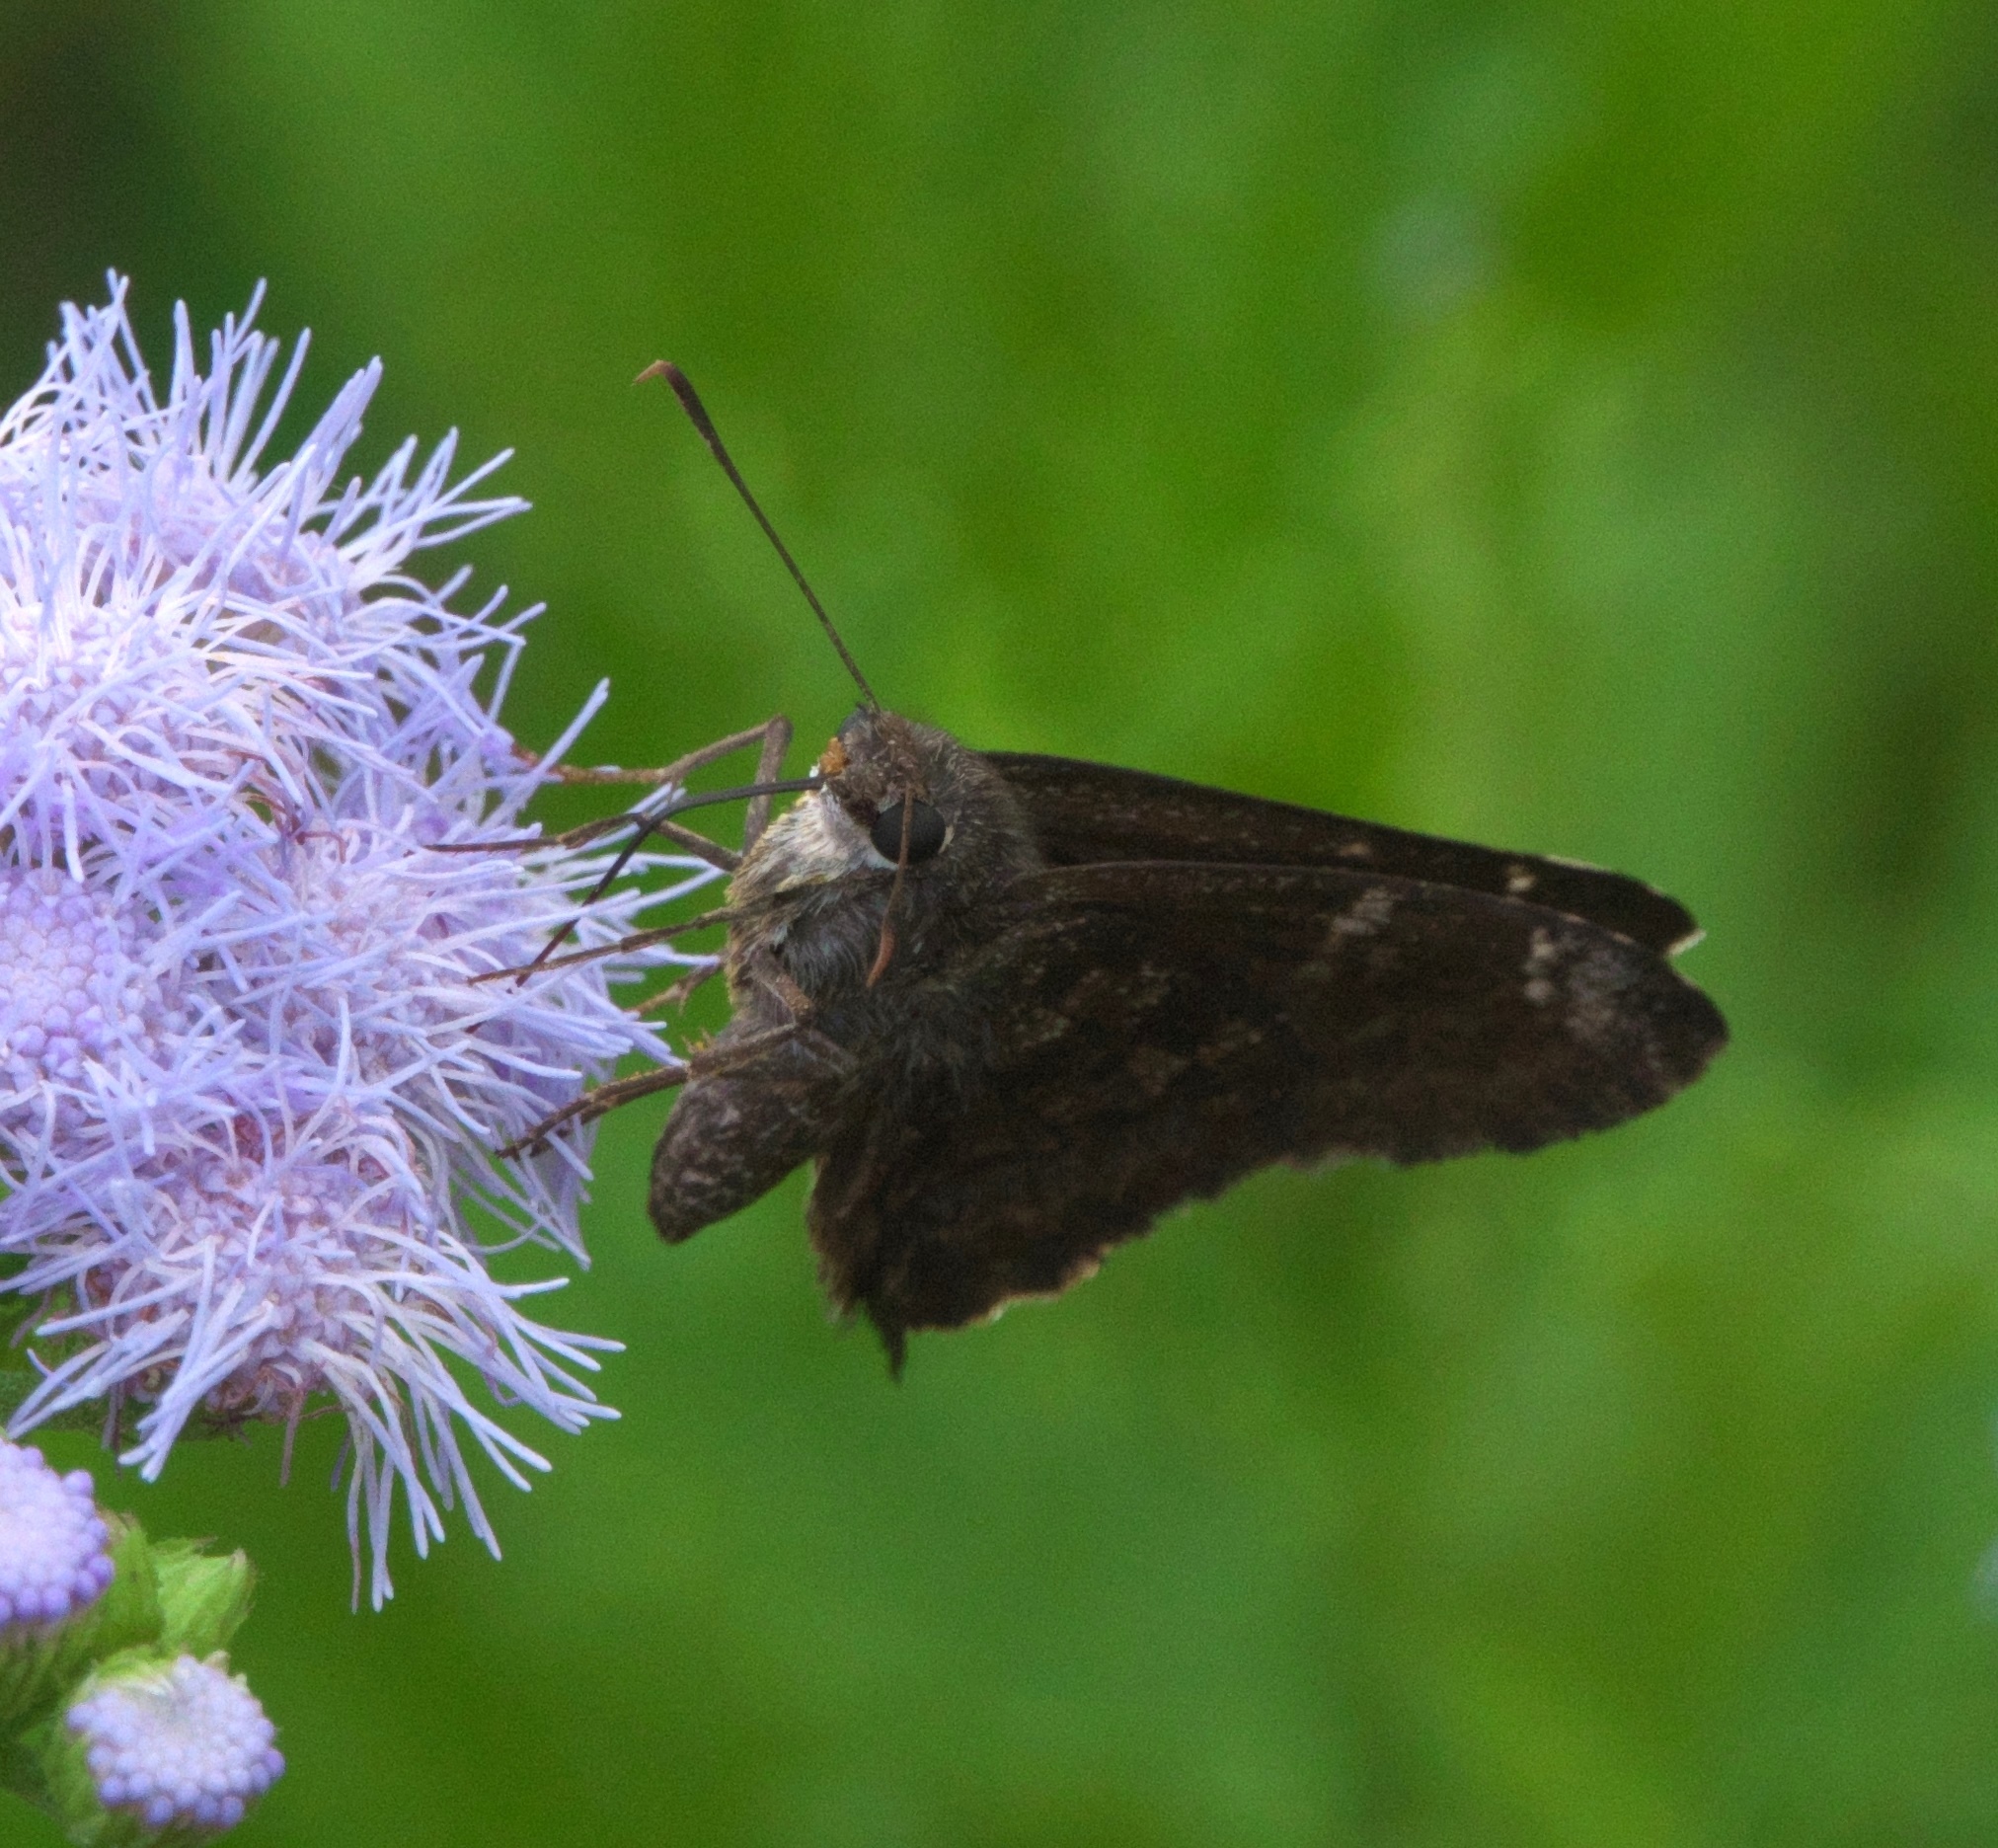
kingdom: Animalia
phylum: Arthropoda
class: Insecta
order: Lepidoptera
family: Hesperiidae
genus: Caicella
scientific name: Caicella calchas
